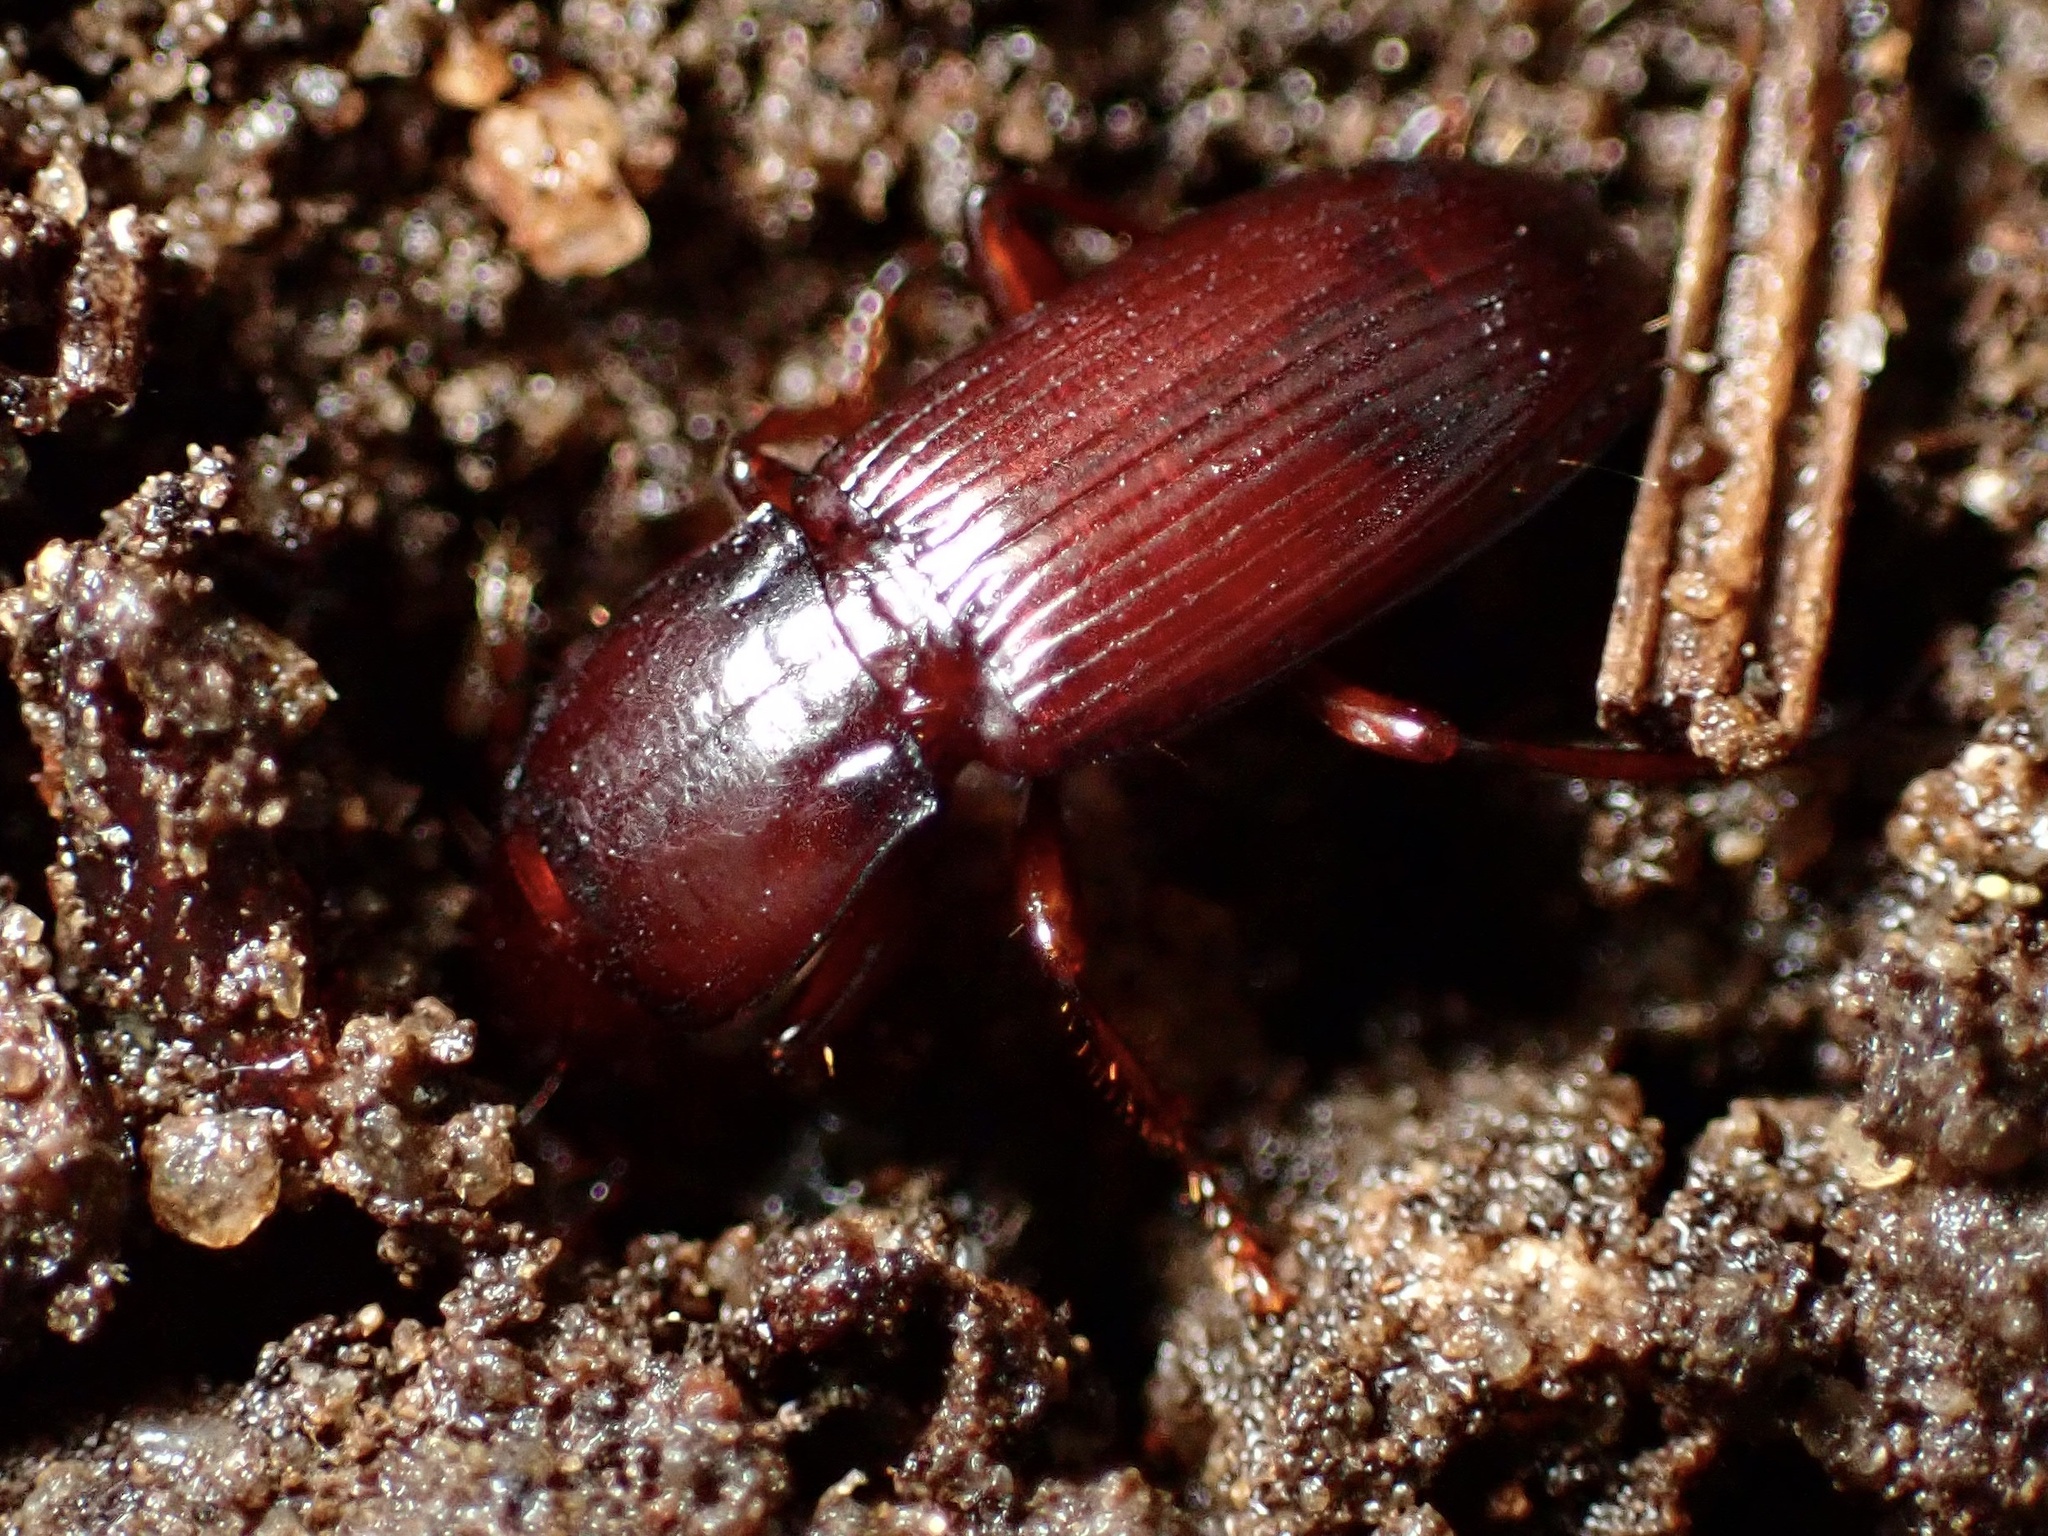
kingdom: Animalia
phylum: Arthropoda
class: Insecta
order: Coleoptera
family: Carabidae
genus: Pterostichus
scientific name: Pterostichus angustus
